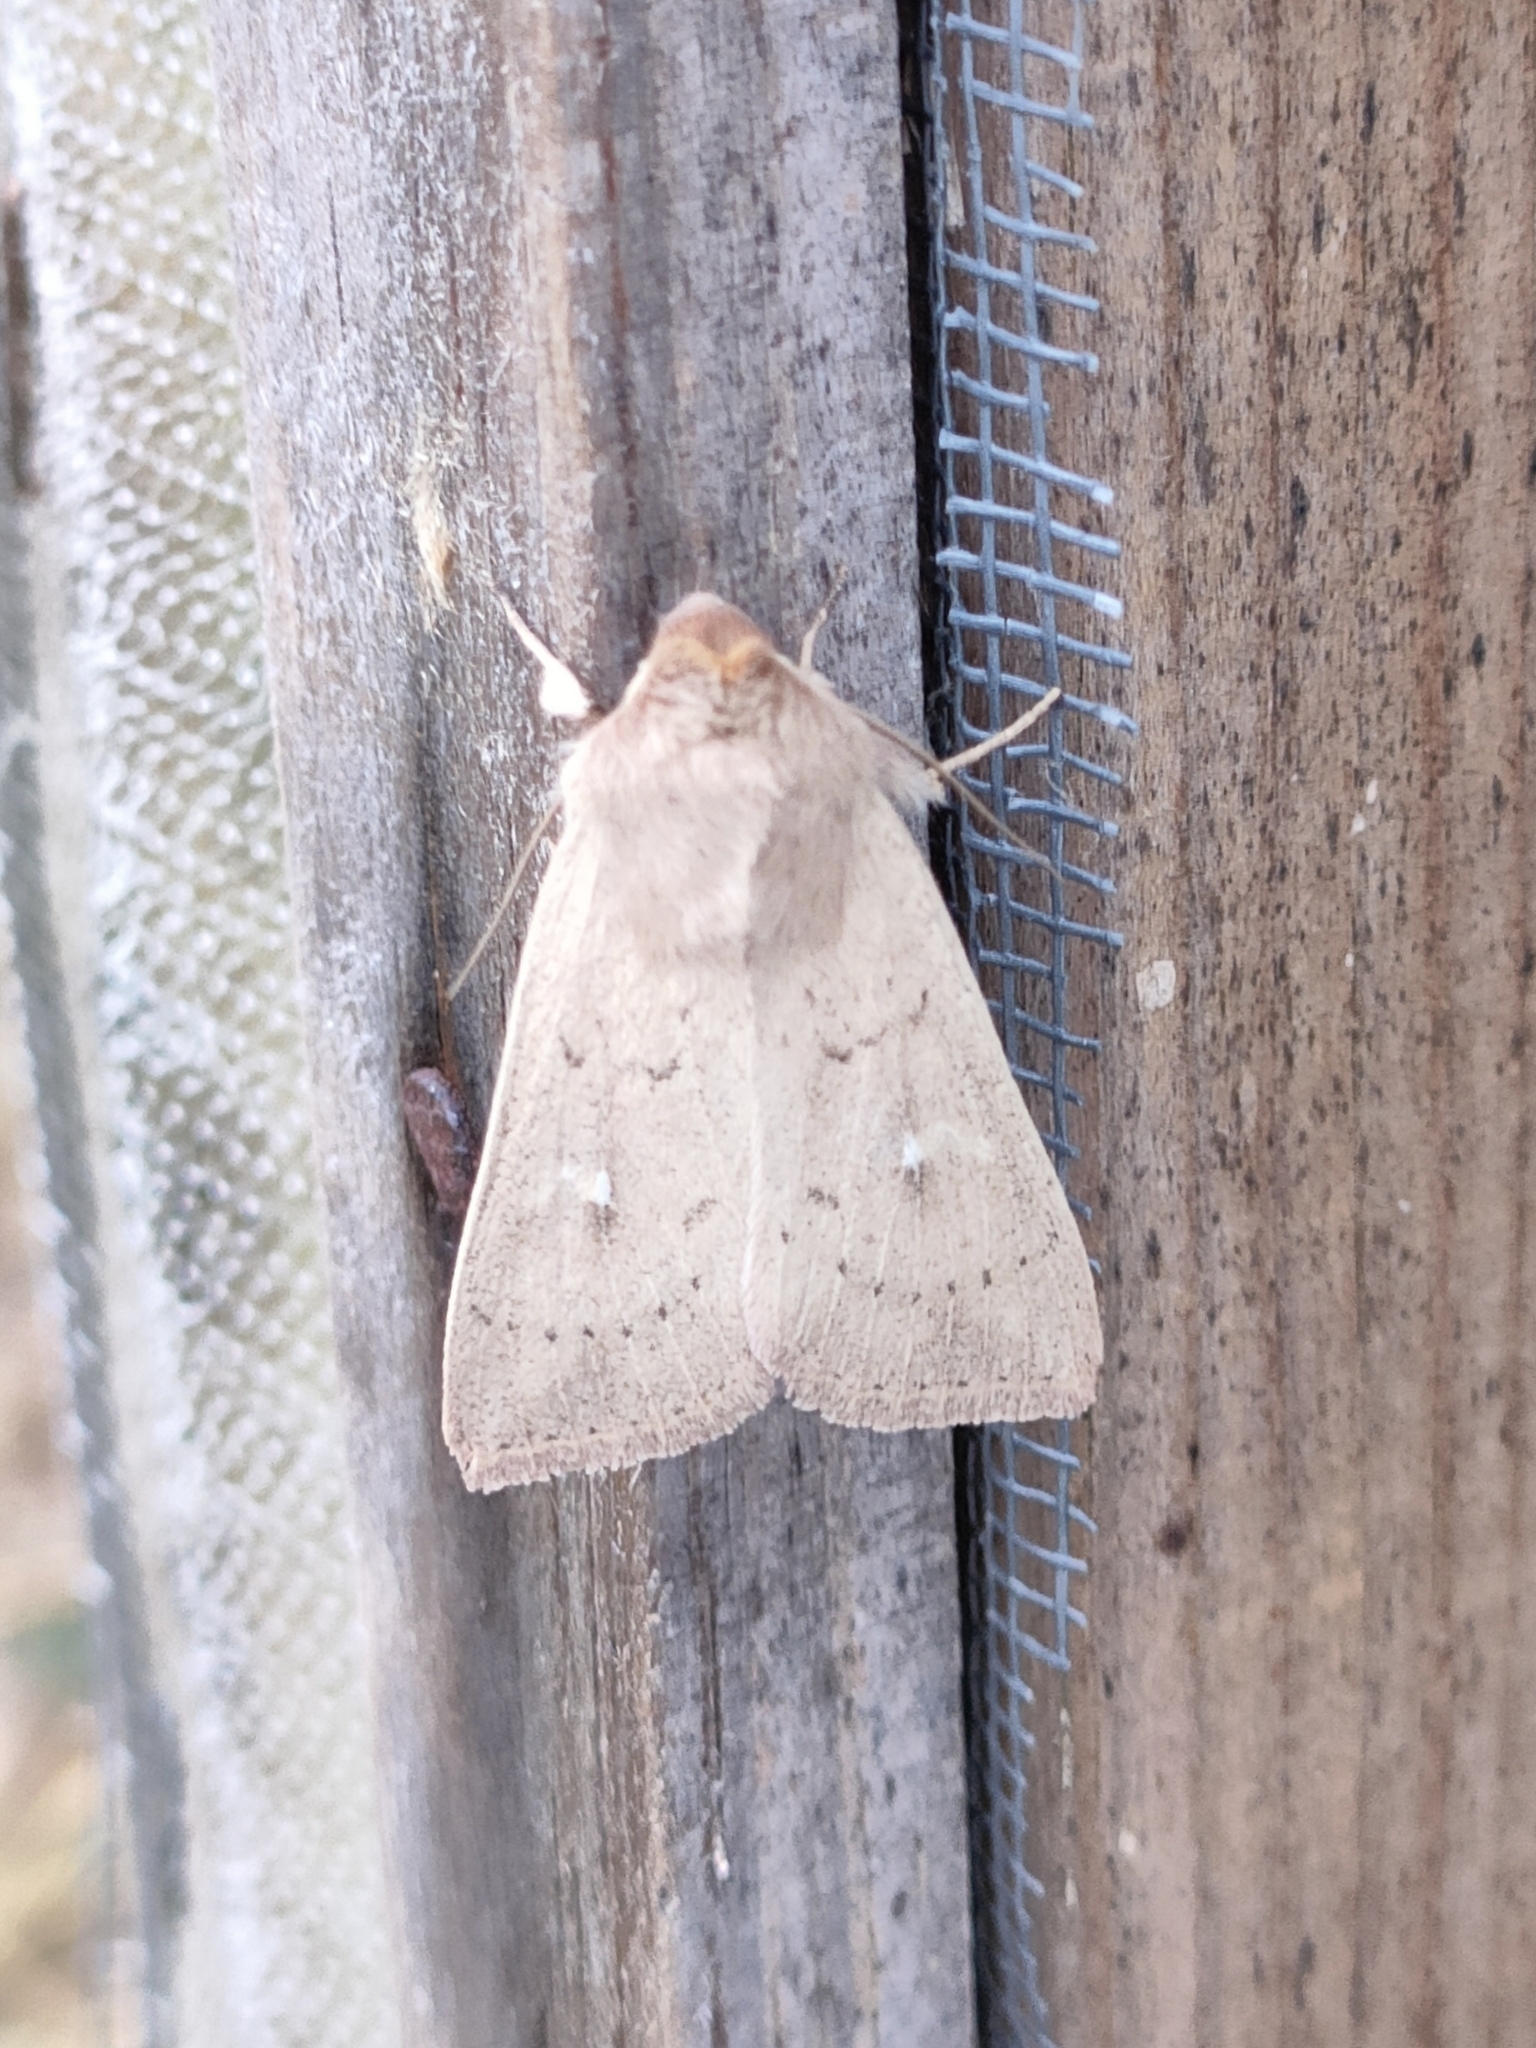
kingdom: Animalia
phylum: Arthropoda
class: Insecta
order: Lepidoptera
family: Noctuidae
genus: Mythimna
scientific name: Mythimna ferrago
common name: Clay
